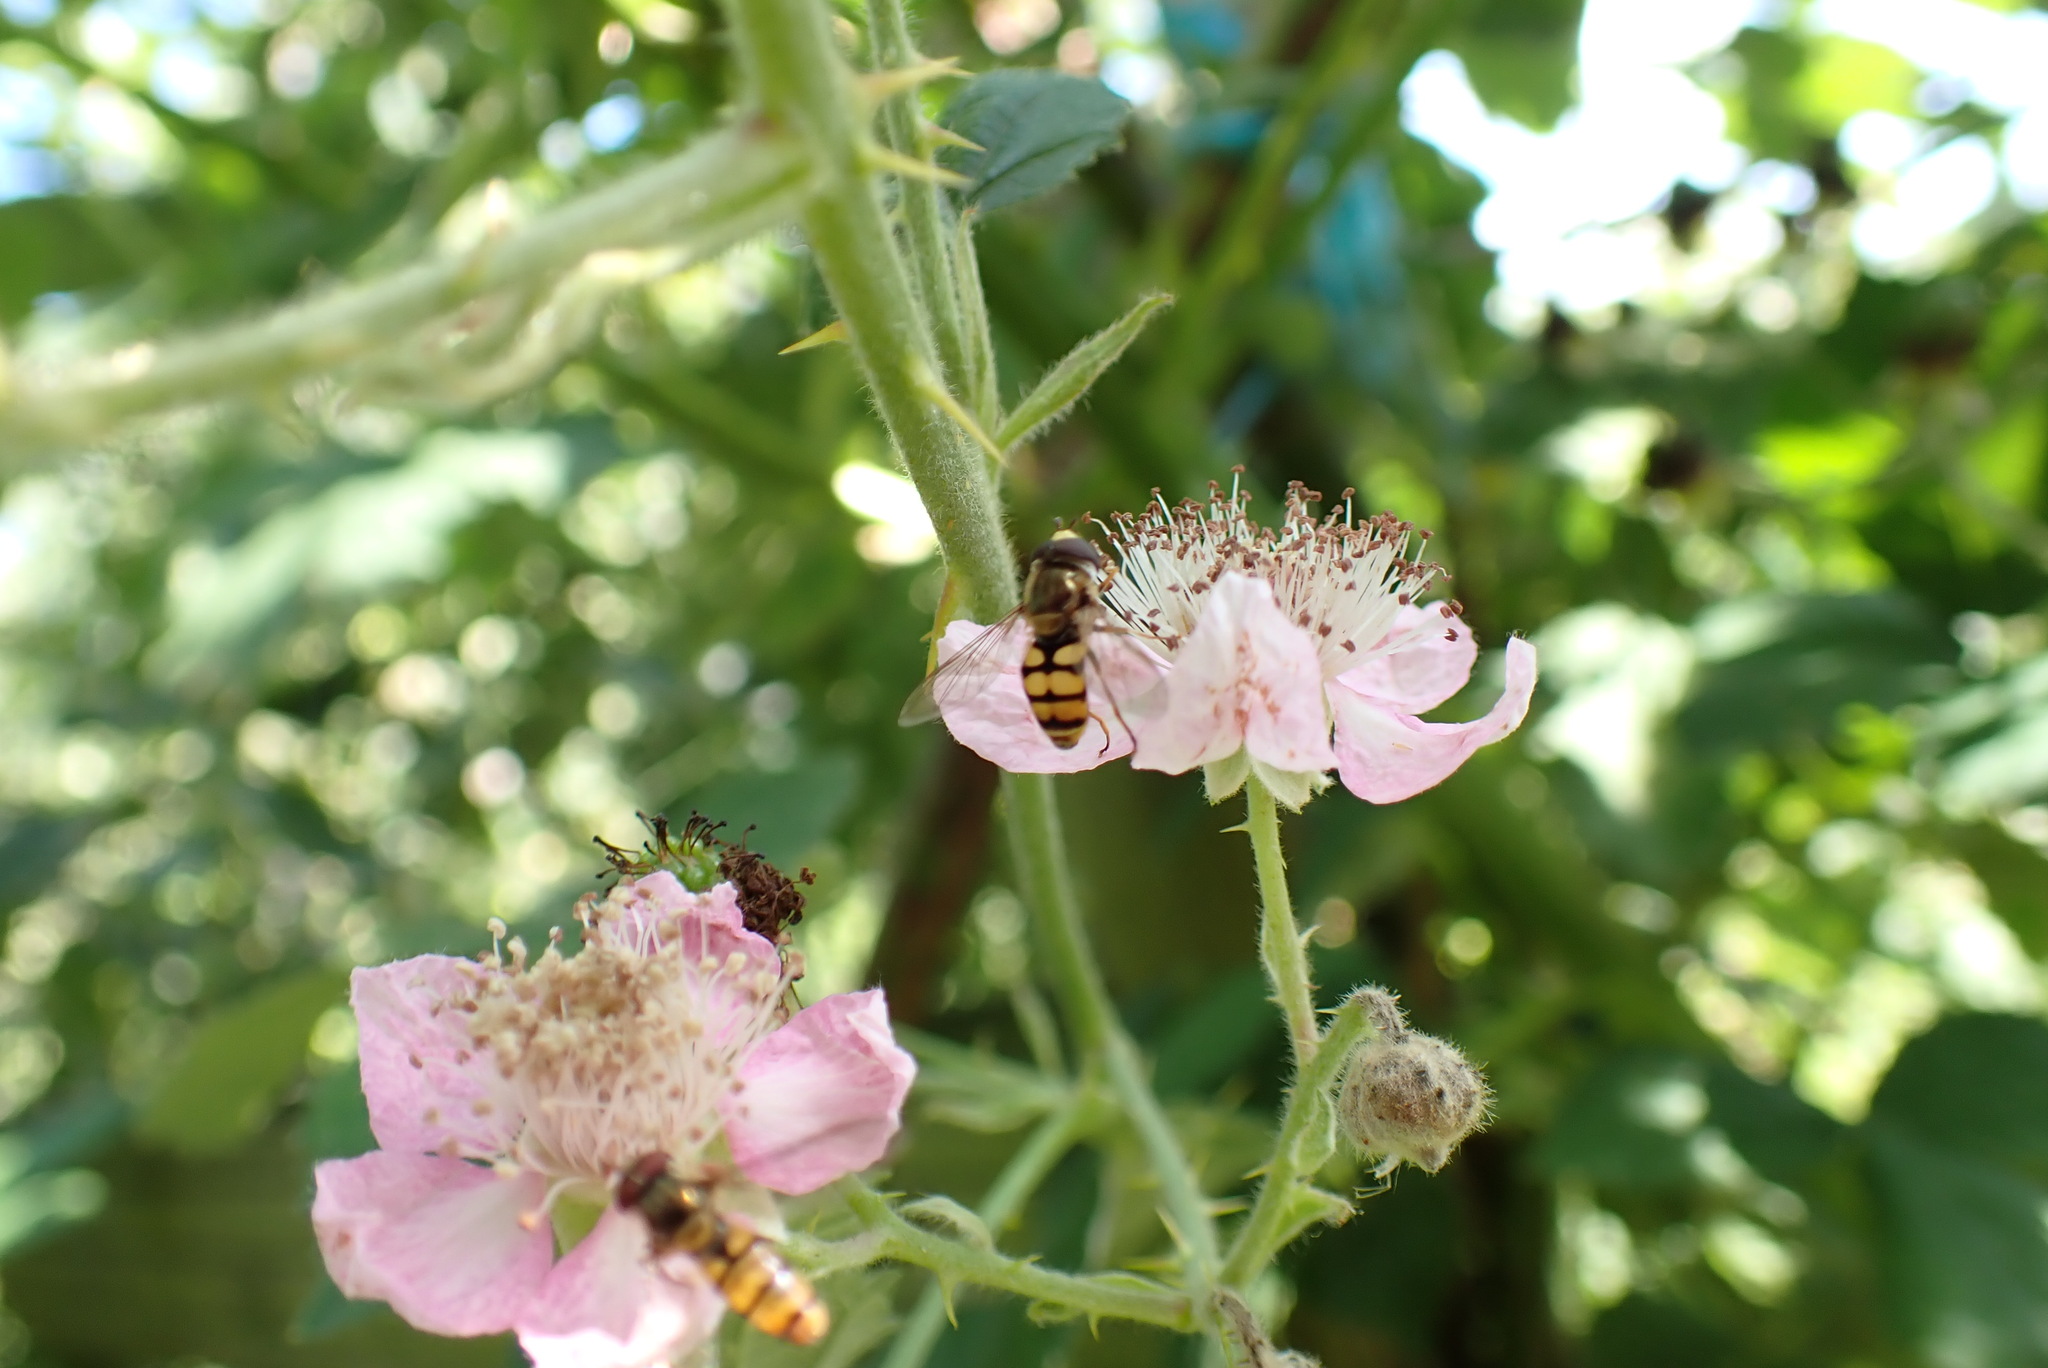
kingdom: Animalia
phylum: Arthropoda
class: Insecta
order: Diptera
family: Syrphidae
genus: Eupeodes
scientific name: Eupeodes corollae
